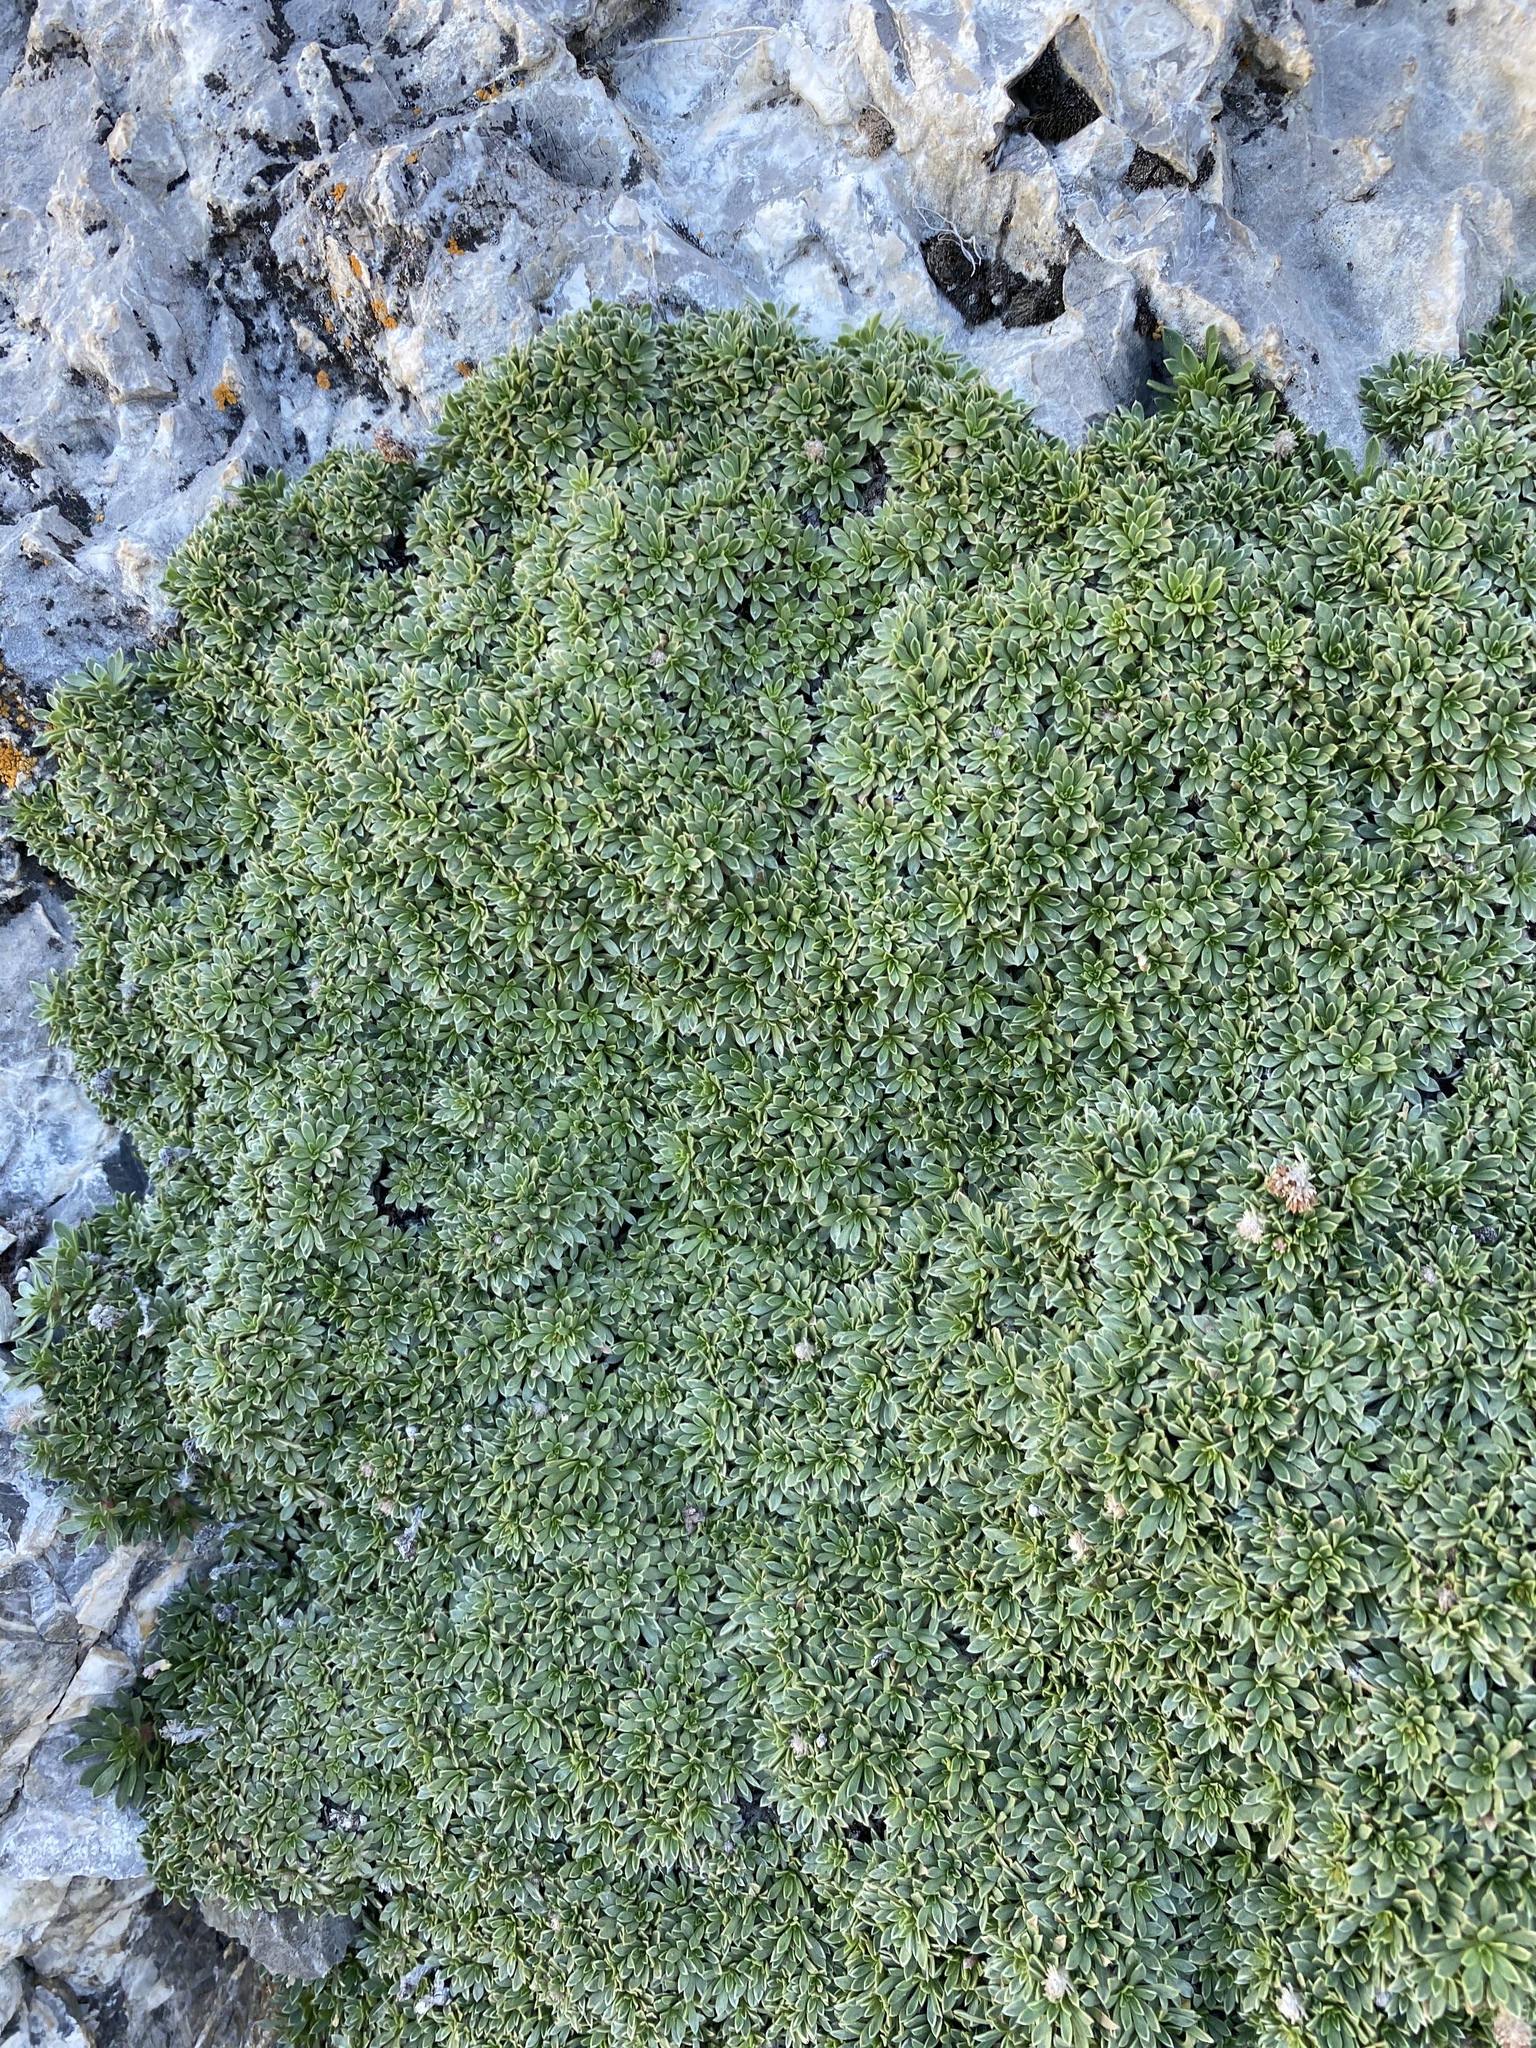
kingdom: Plantae
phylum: Tracheophyta
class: Magnoliopsida
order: Rosales
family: Rosaceae
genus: Petrophytum
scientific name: Petrophytum caespitosum
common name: Mat rockspirea
